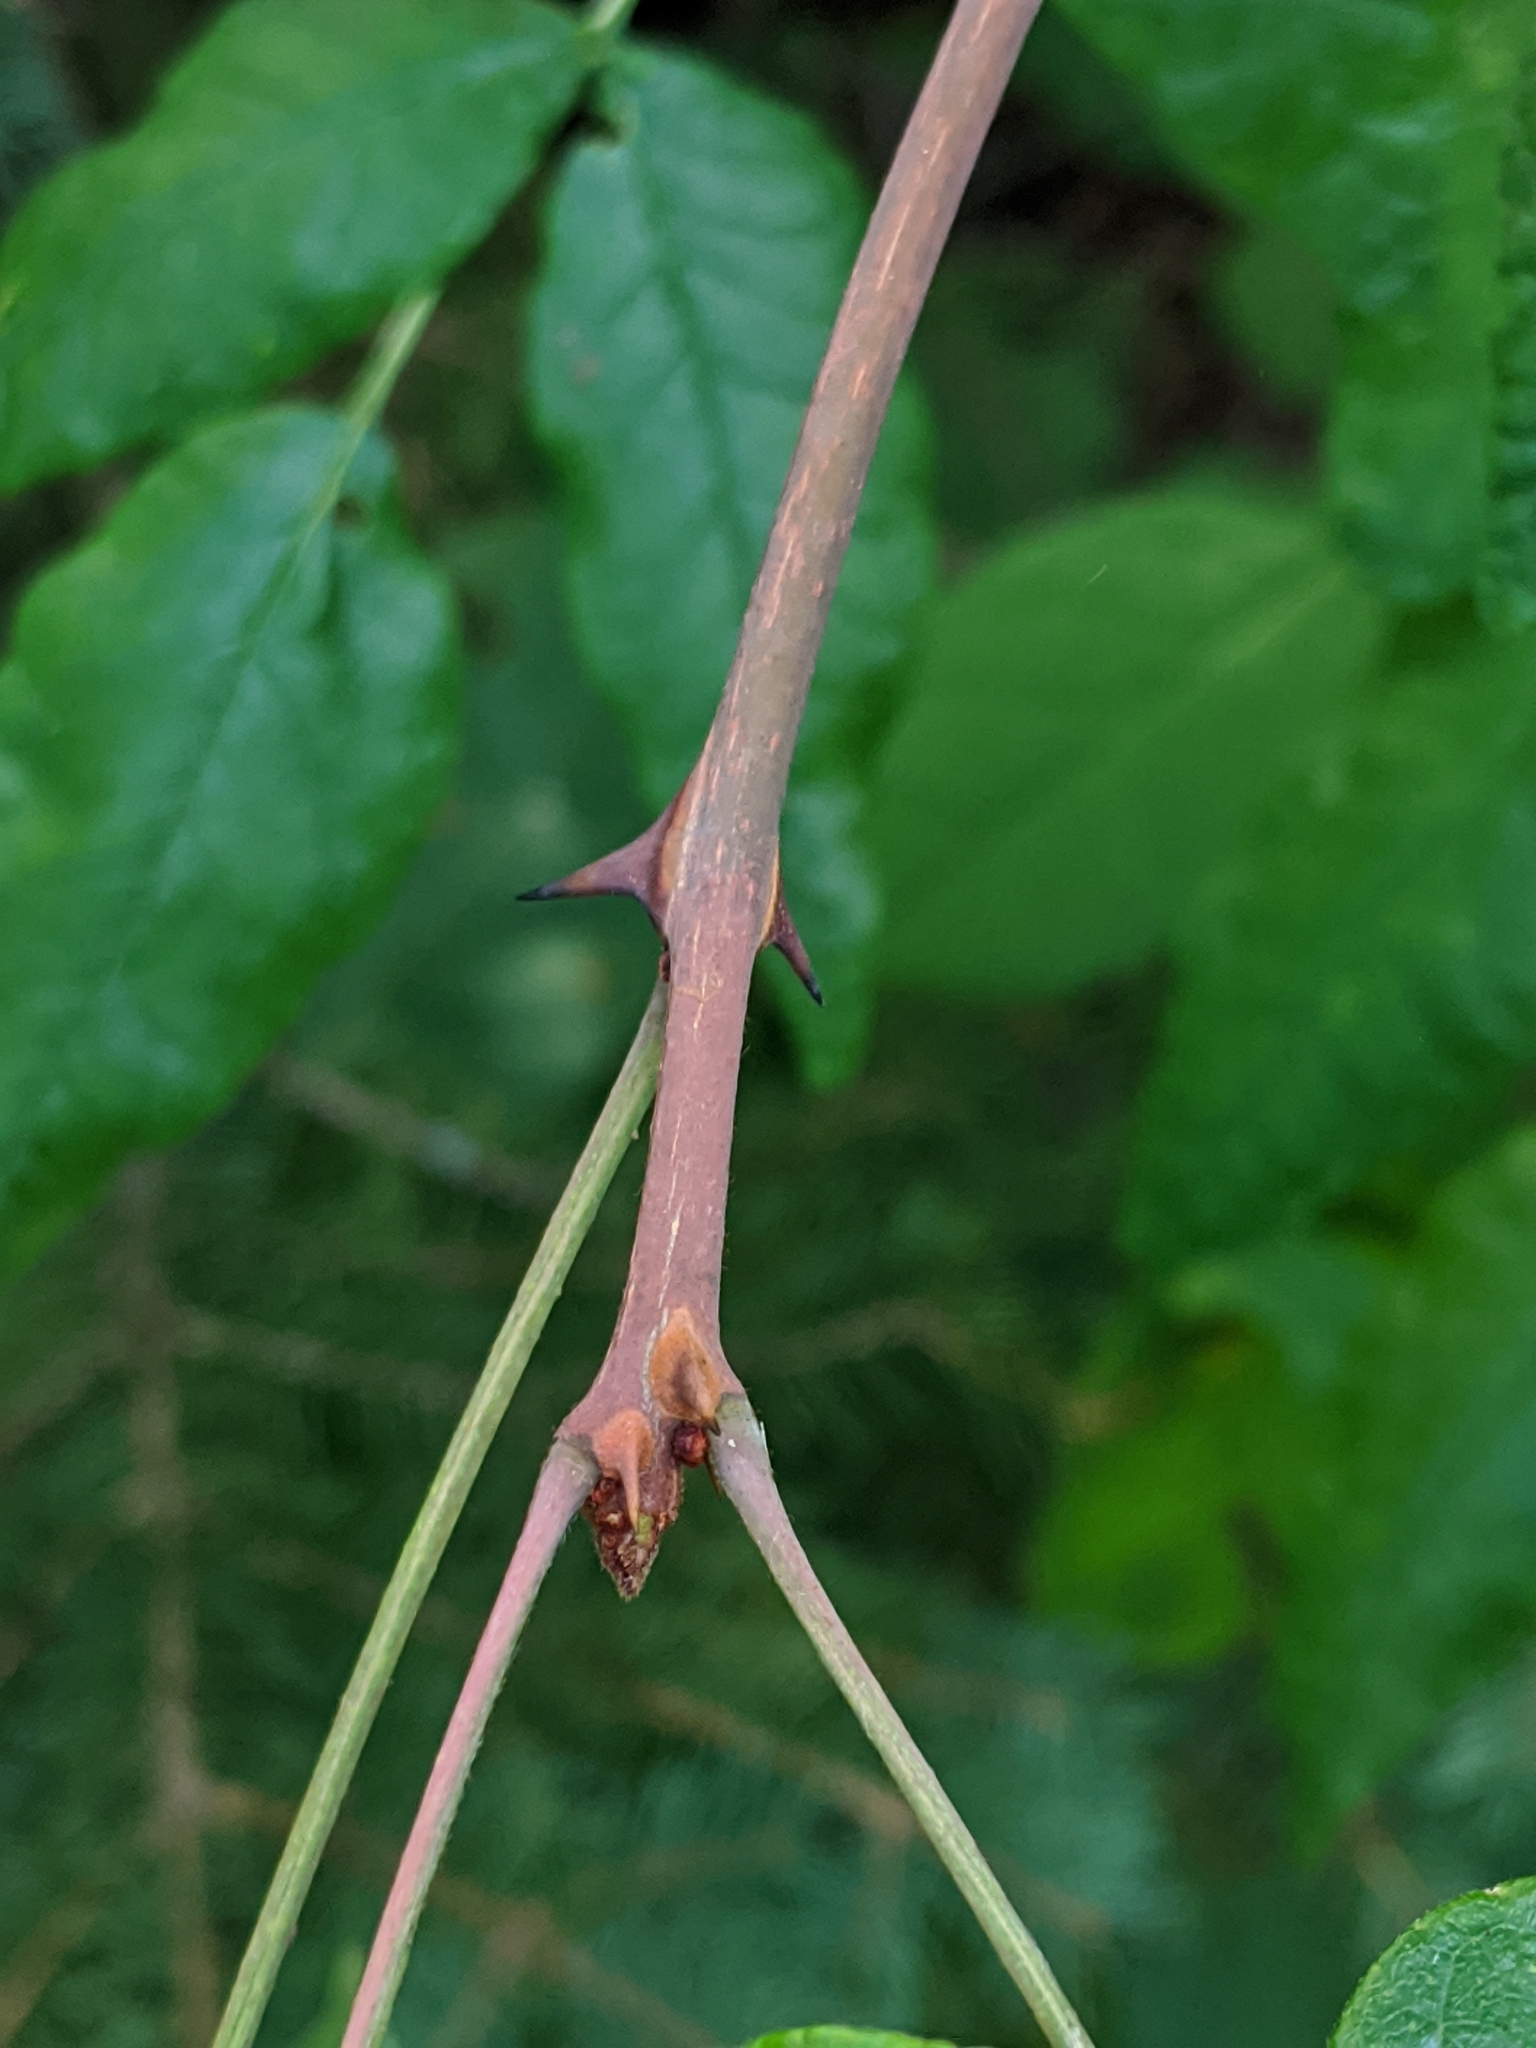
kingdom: Plantae
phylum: Tracheophyta
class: Magnoliopsida
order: Sapindales
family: Rutaceae
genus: Zanthoxylum
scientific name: Zanthoxylum americanum
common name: Northern prickly-ash
